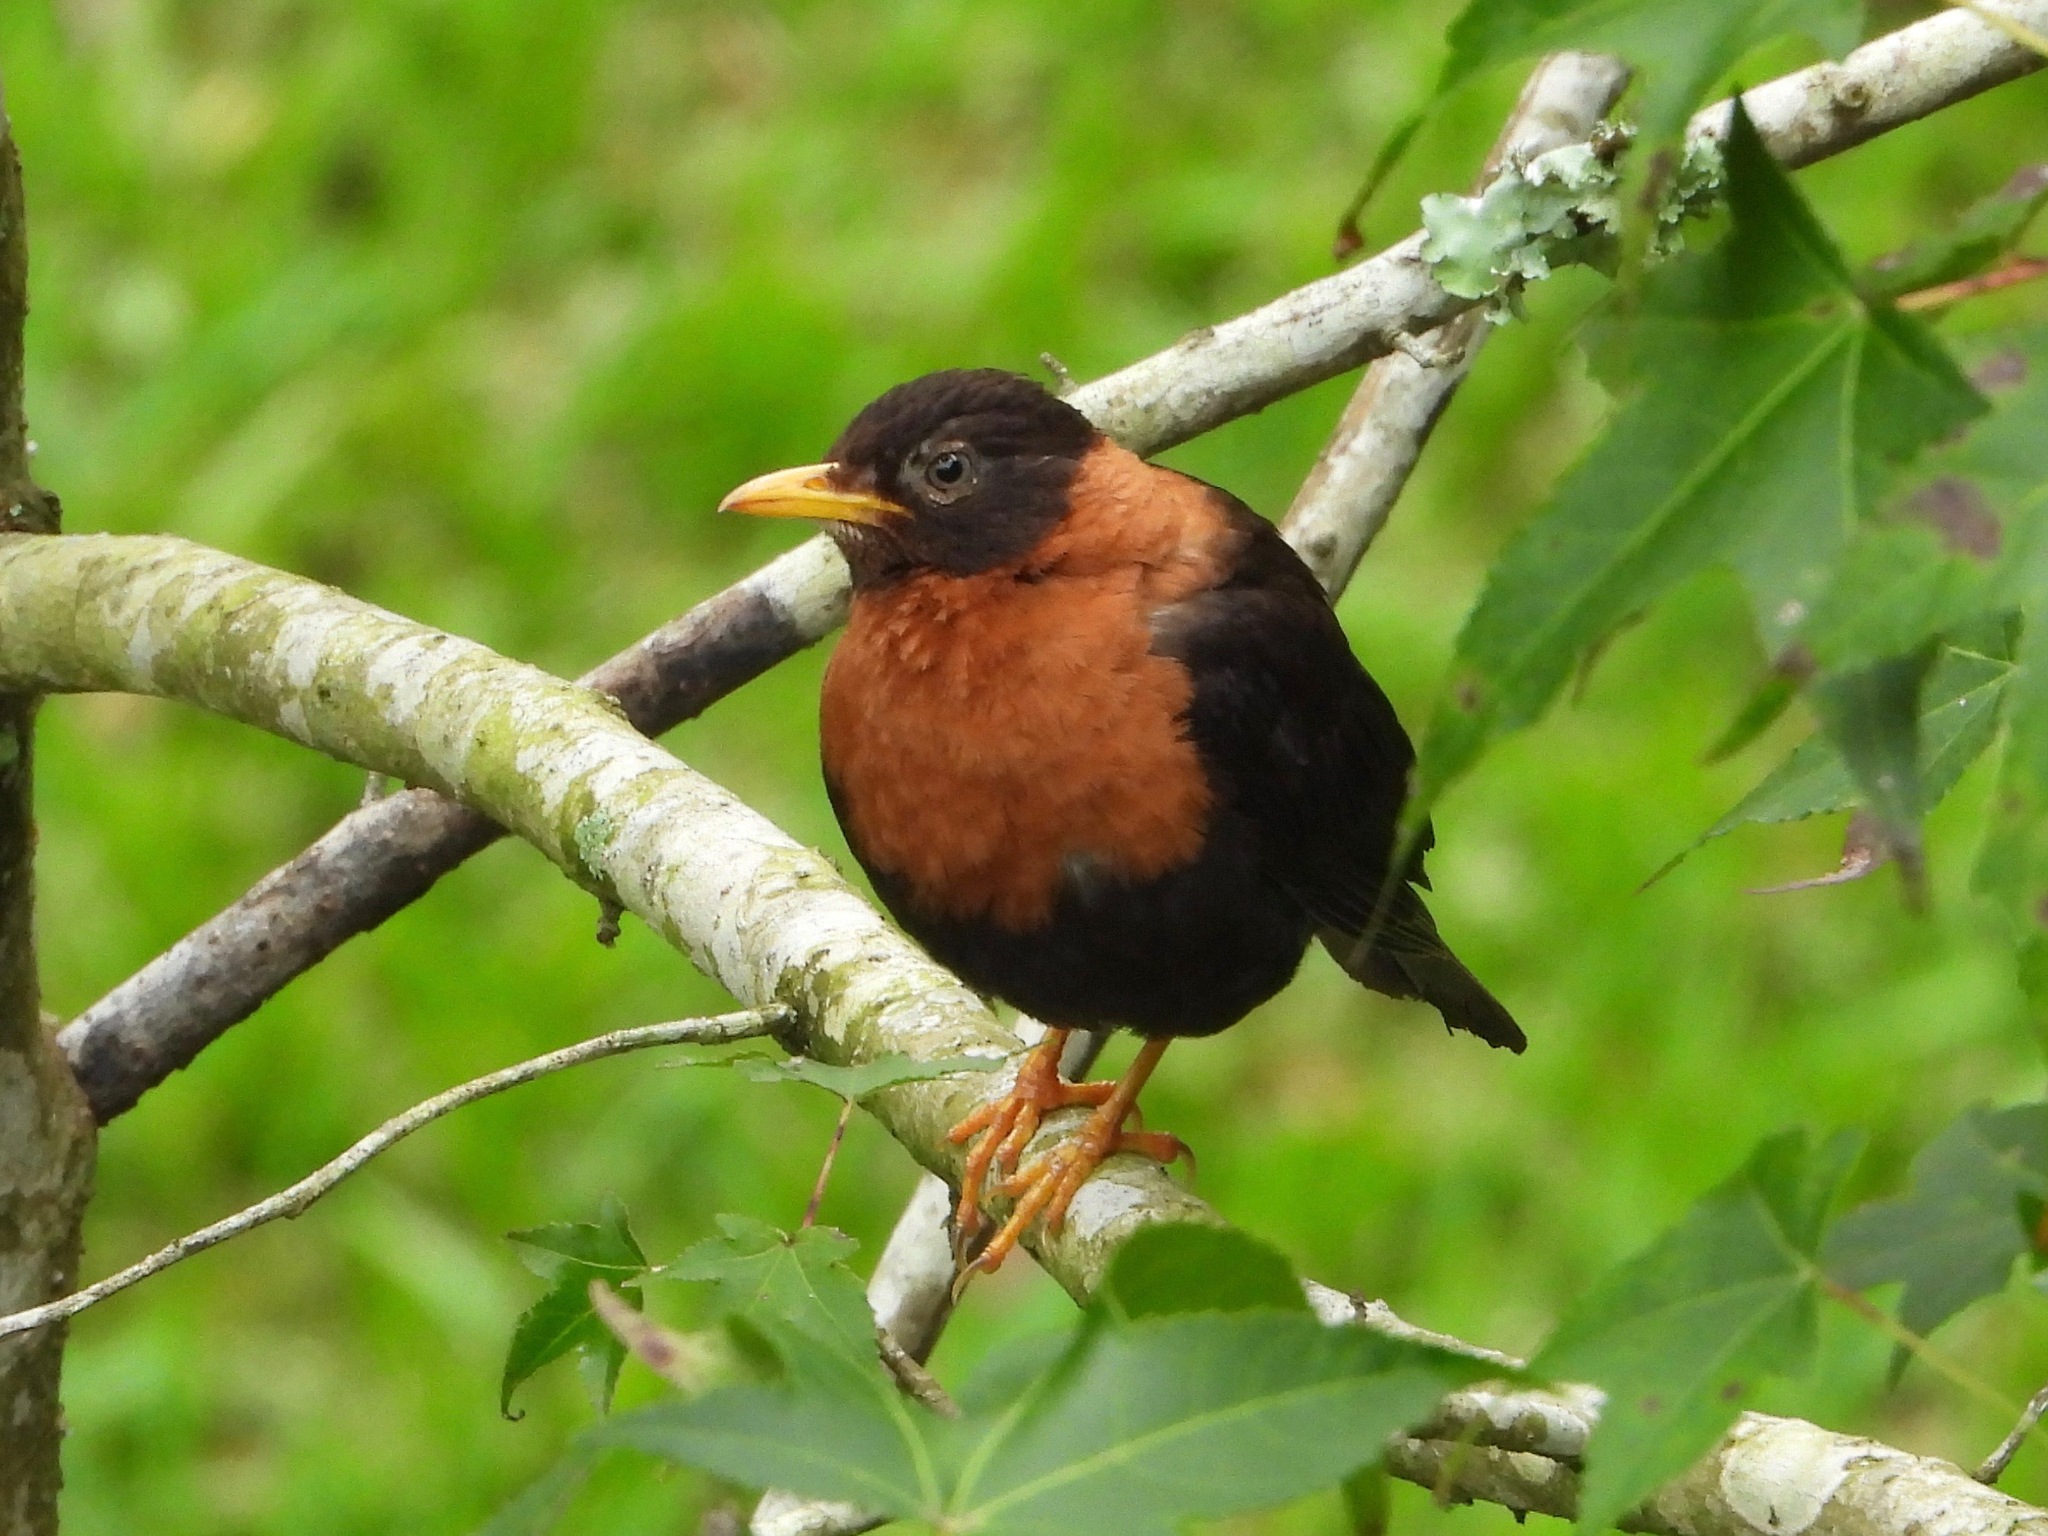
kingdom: Animalia
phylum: Chordata
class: Aves
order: Passeriformes
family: Turdidae
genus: Turdus
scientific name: Turdus rufitorques
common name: Rufous-collared thrush
